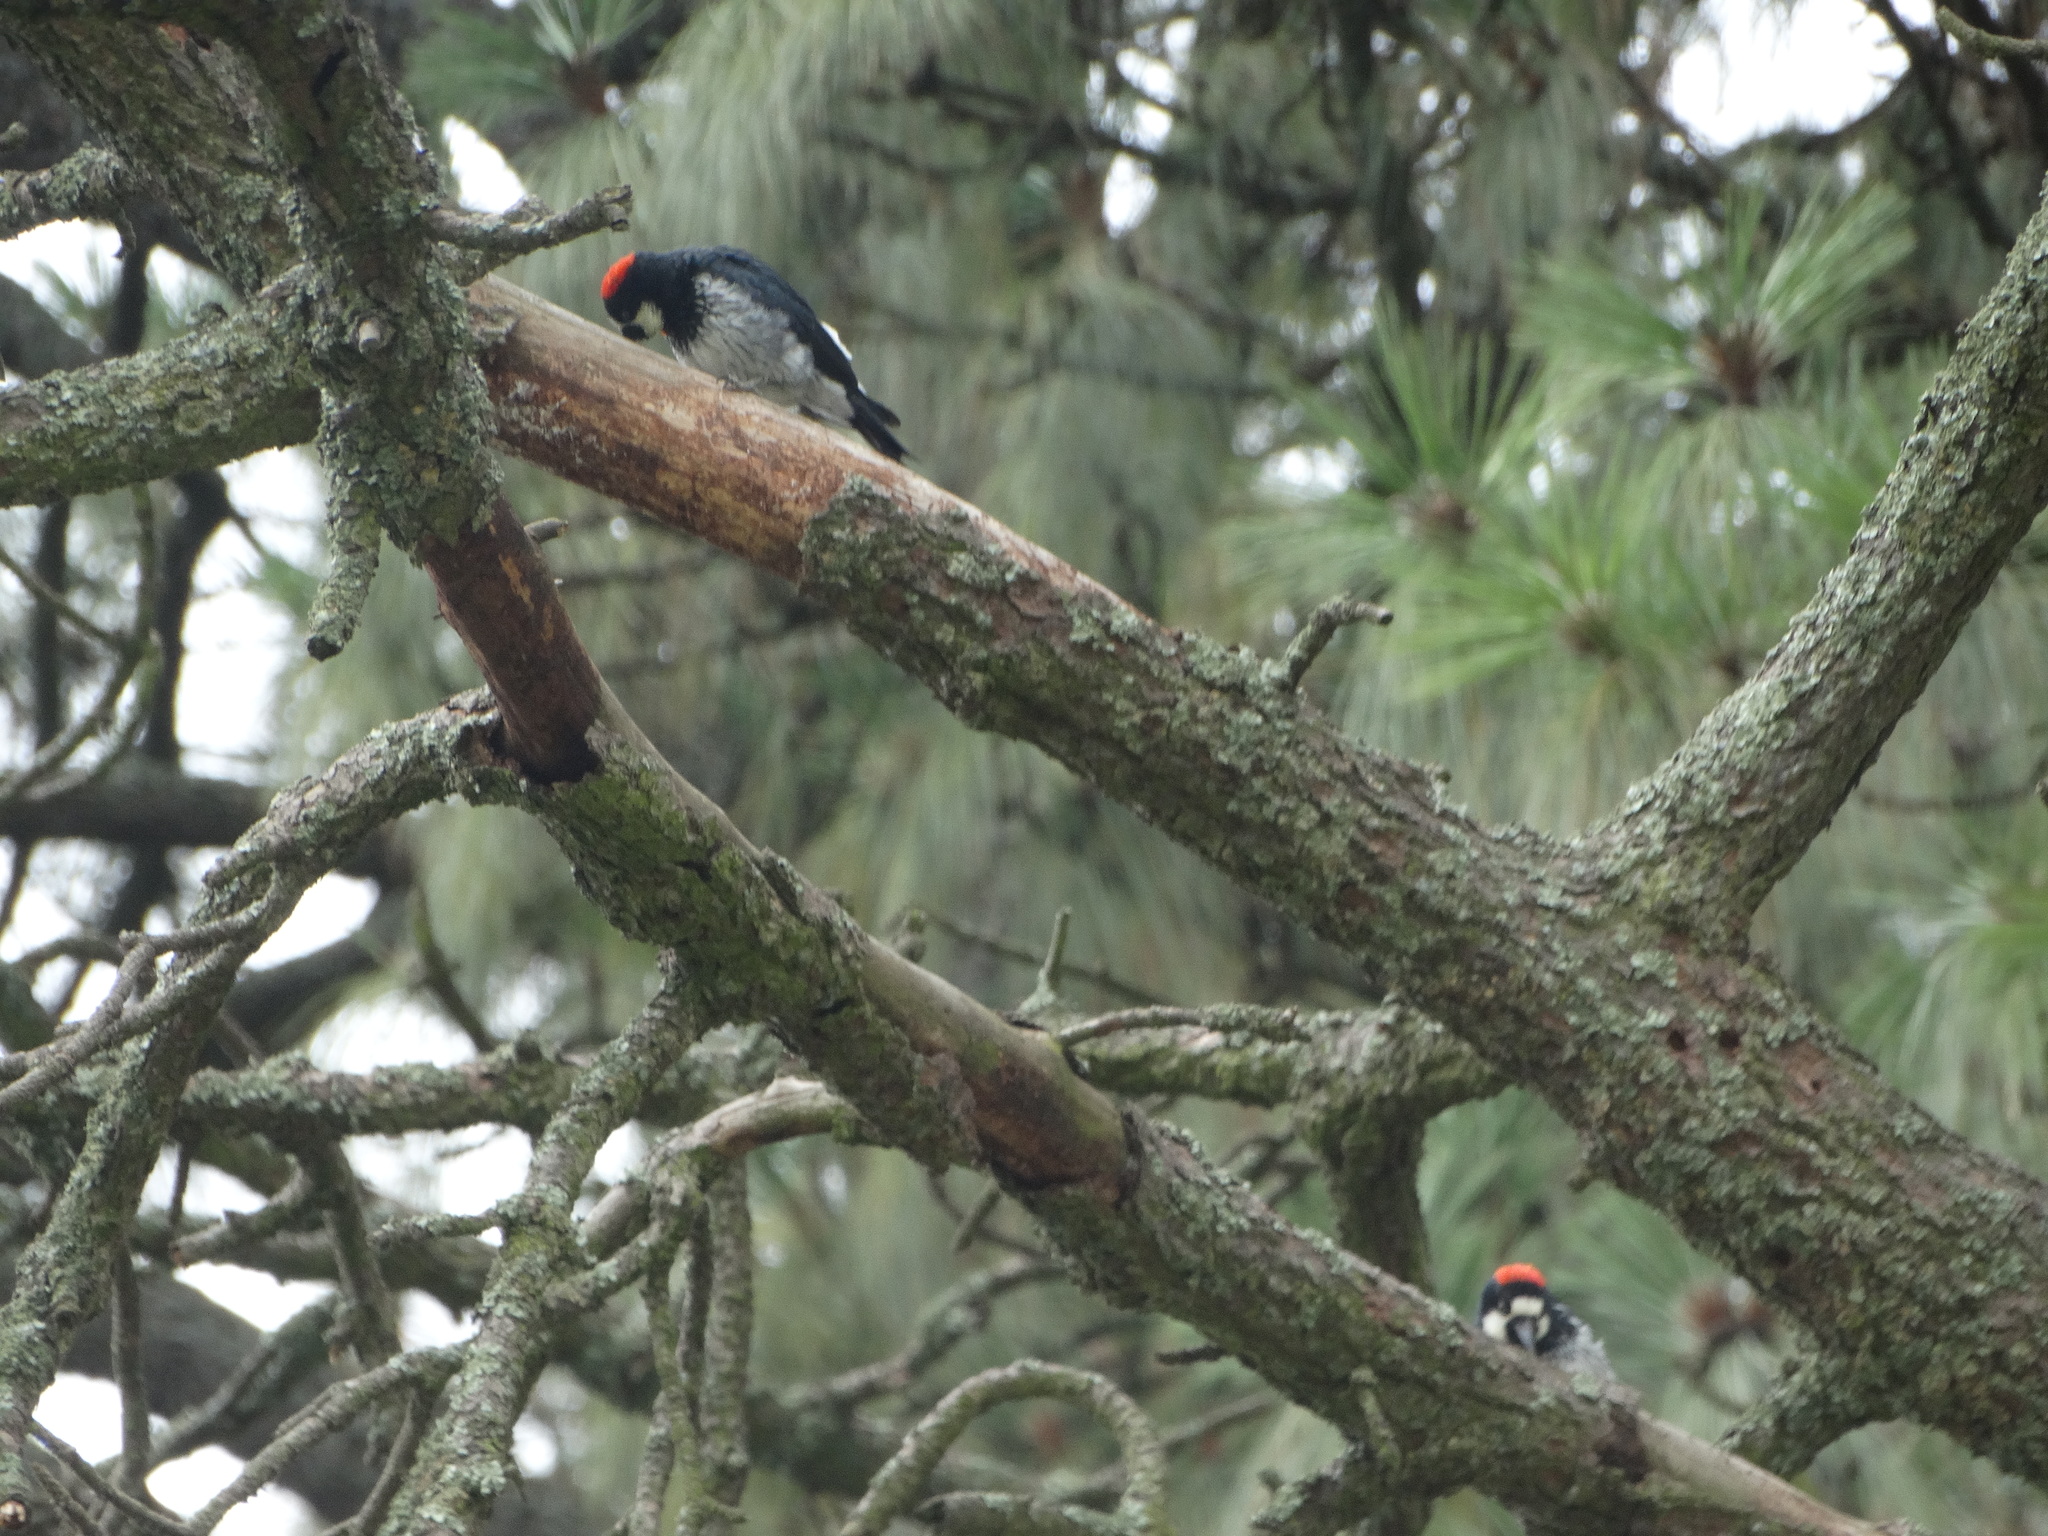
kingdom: Animalia
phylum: Chordata
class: Aves
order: Piciformes
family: Picidae
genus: Melanerpes
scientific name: Melanerpes formicivorus
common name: Acorn woodpecker
